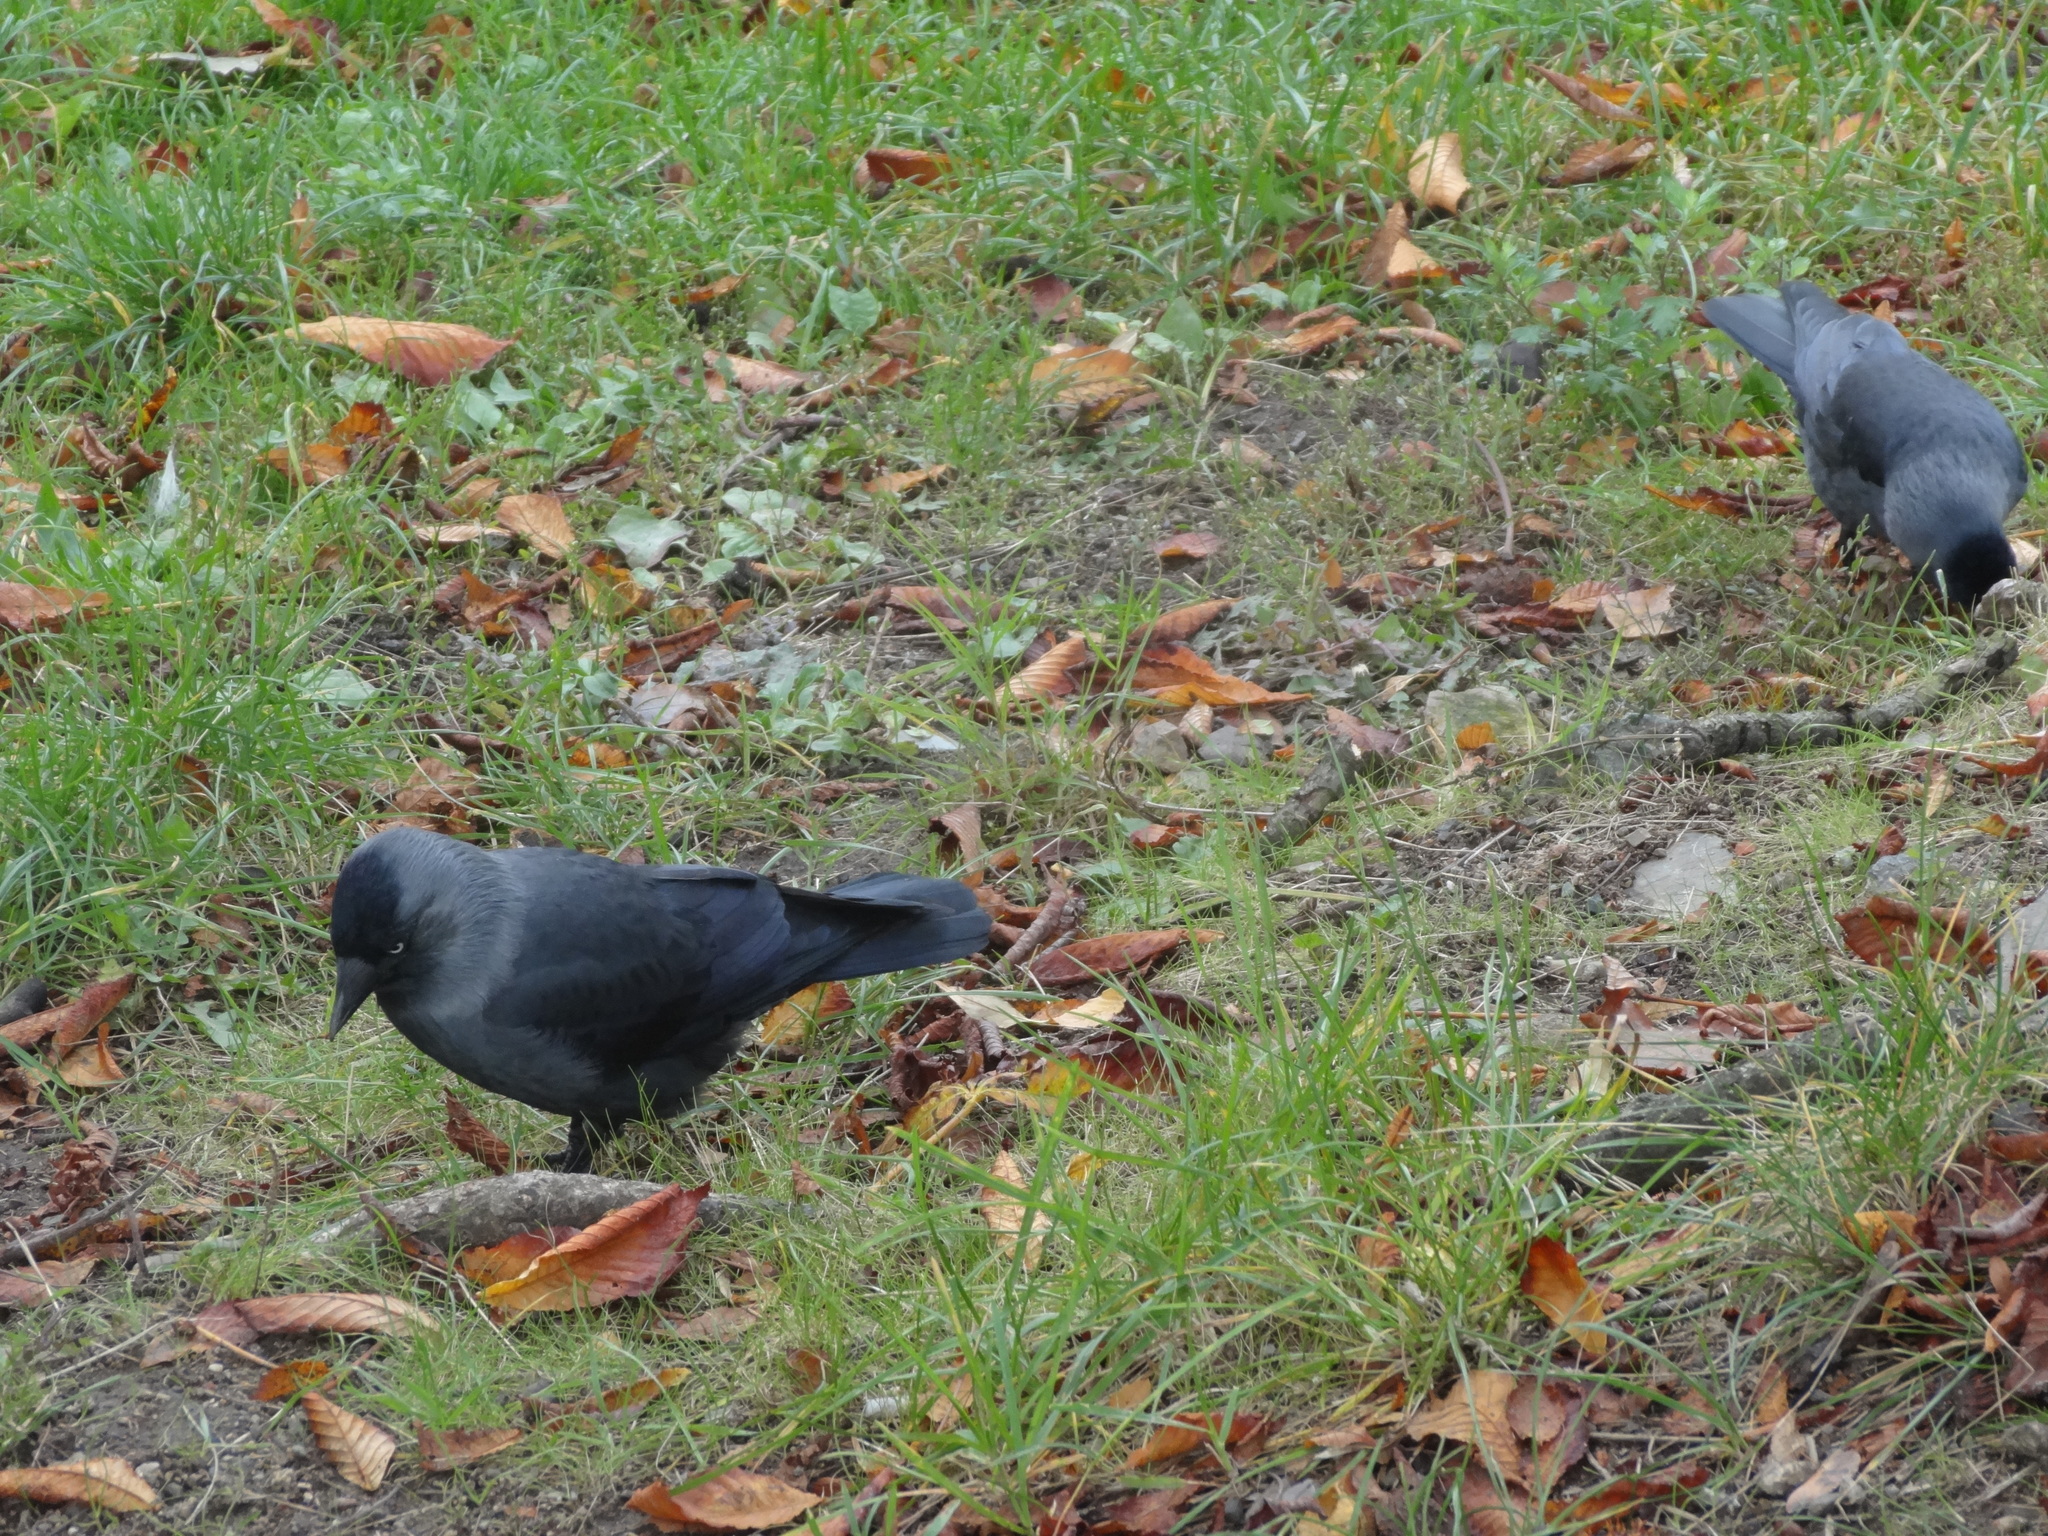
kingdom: Animalia
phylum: Chordata
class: Aves
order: Passeriformes
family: Corvidae
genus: Coloeus
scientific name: Coloeus monedula
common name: Western jackdaw
